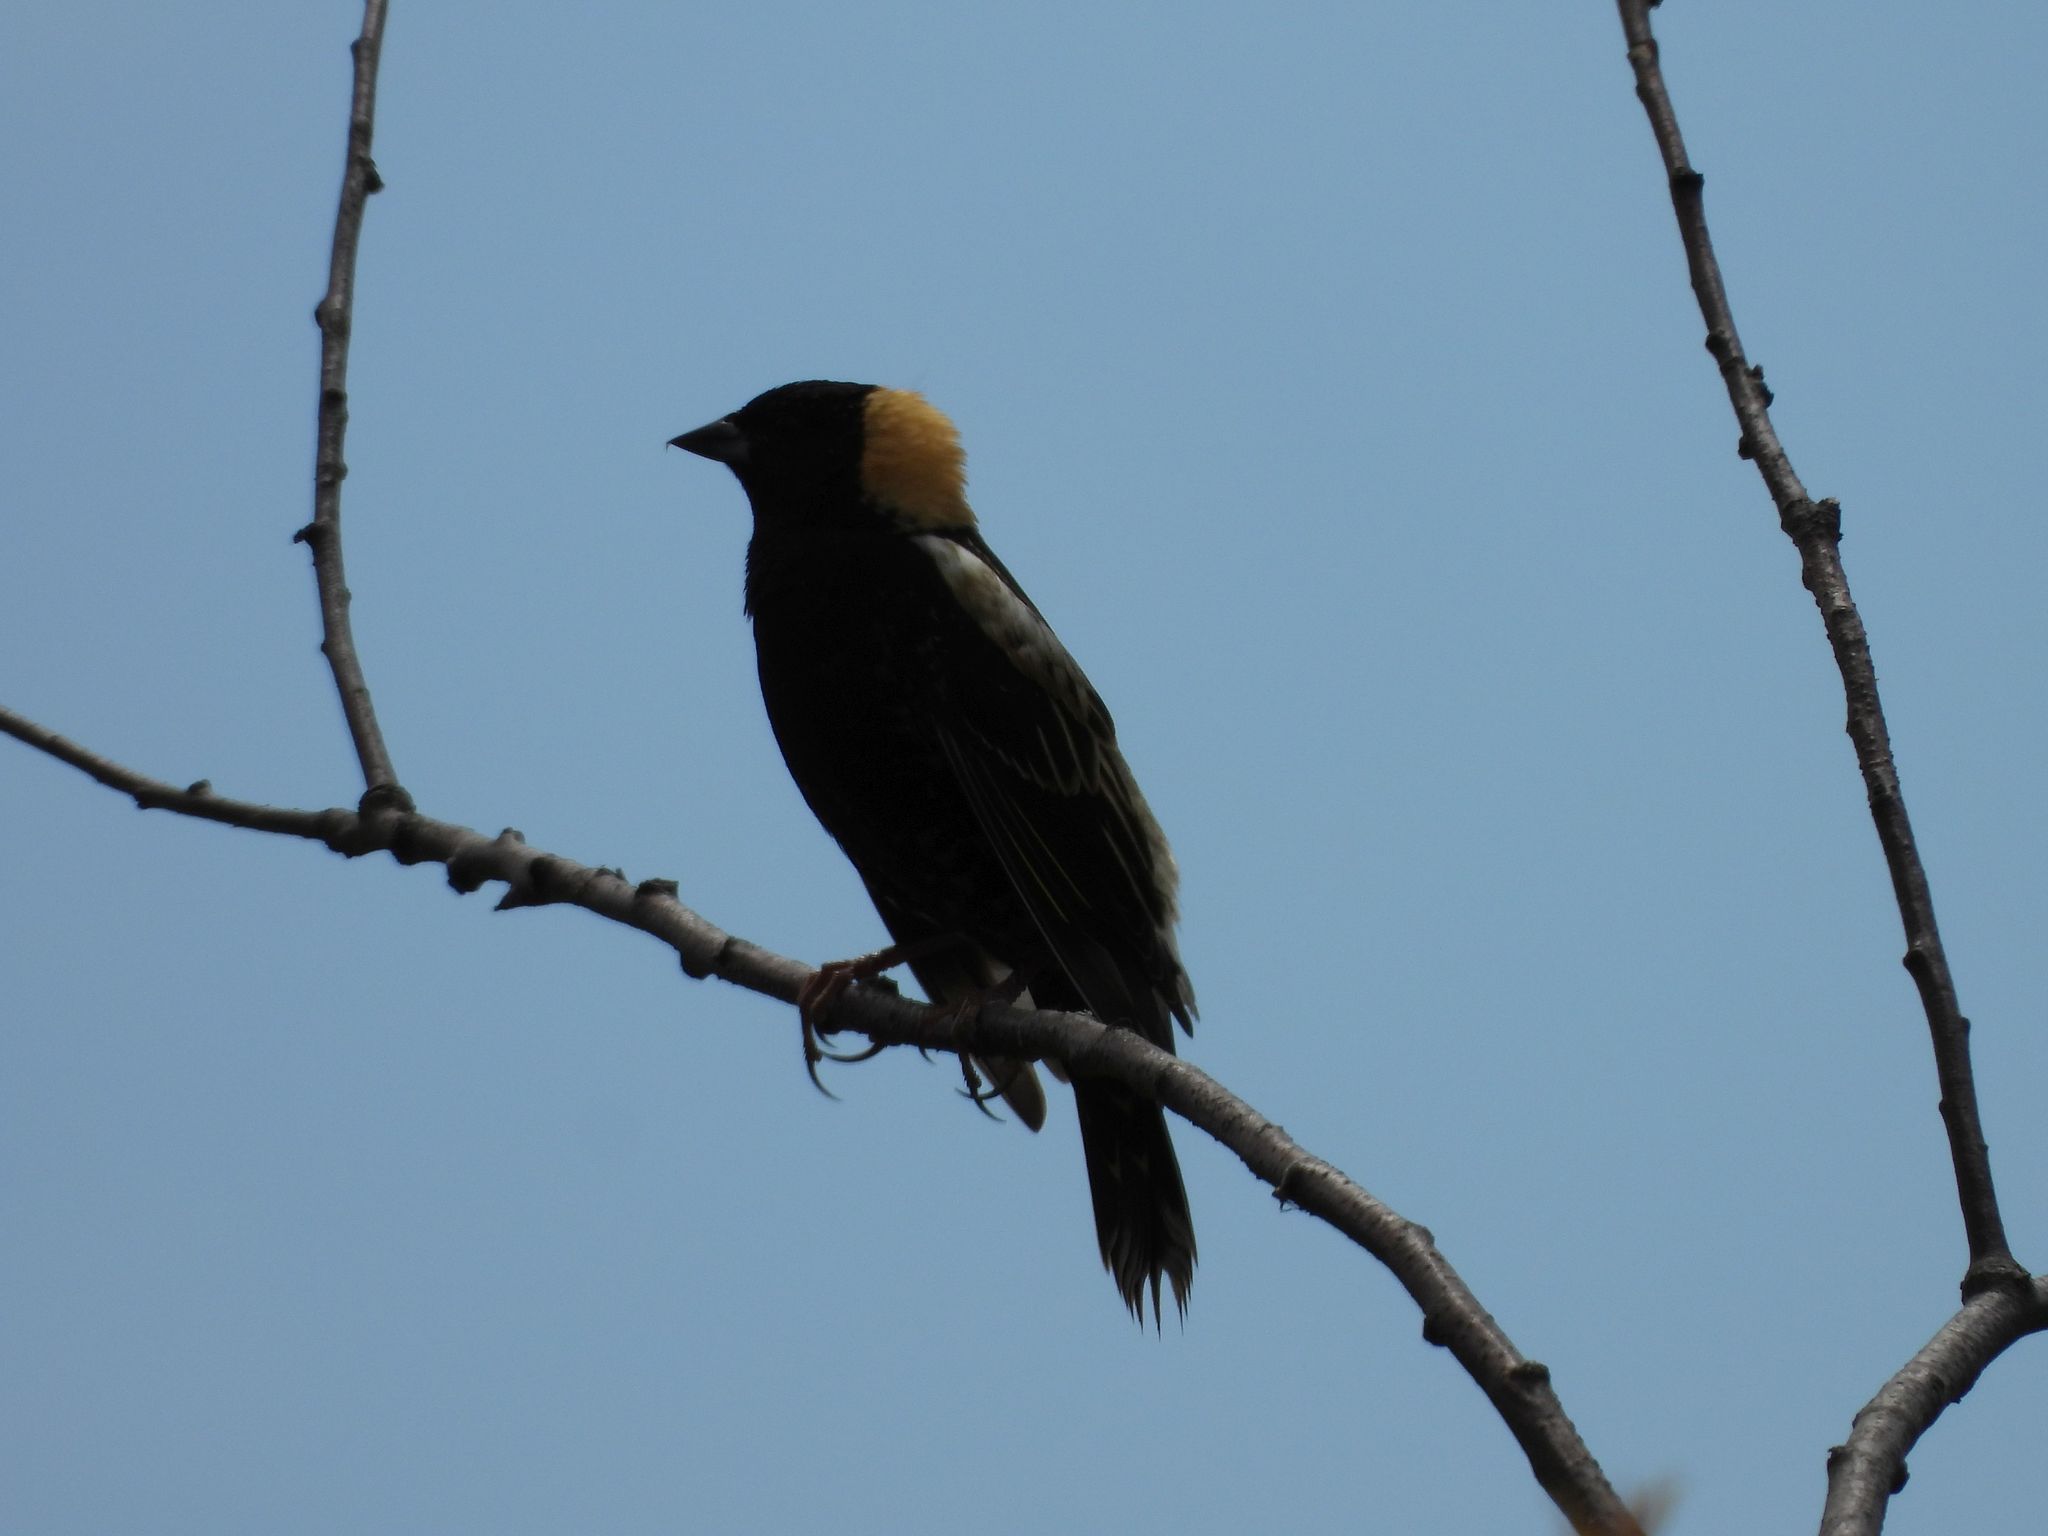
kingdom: Animalia
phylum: Chordata
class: Aves
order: Passeriformes
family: Icteridae
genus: Dolichonyx
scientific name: Dolichonyx oryzivorus
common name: Bobolink
